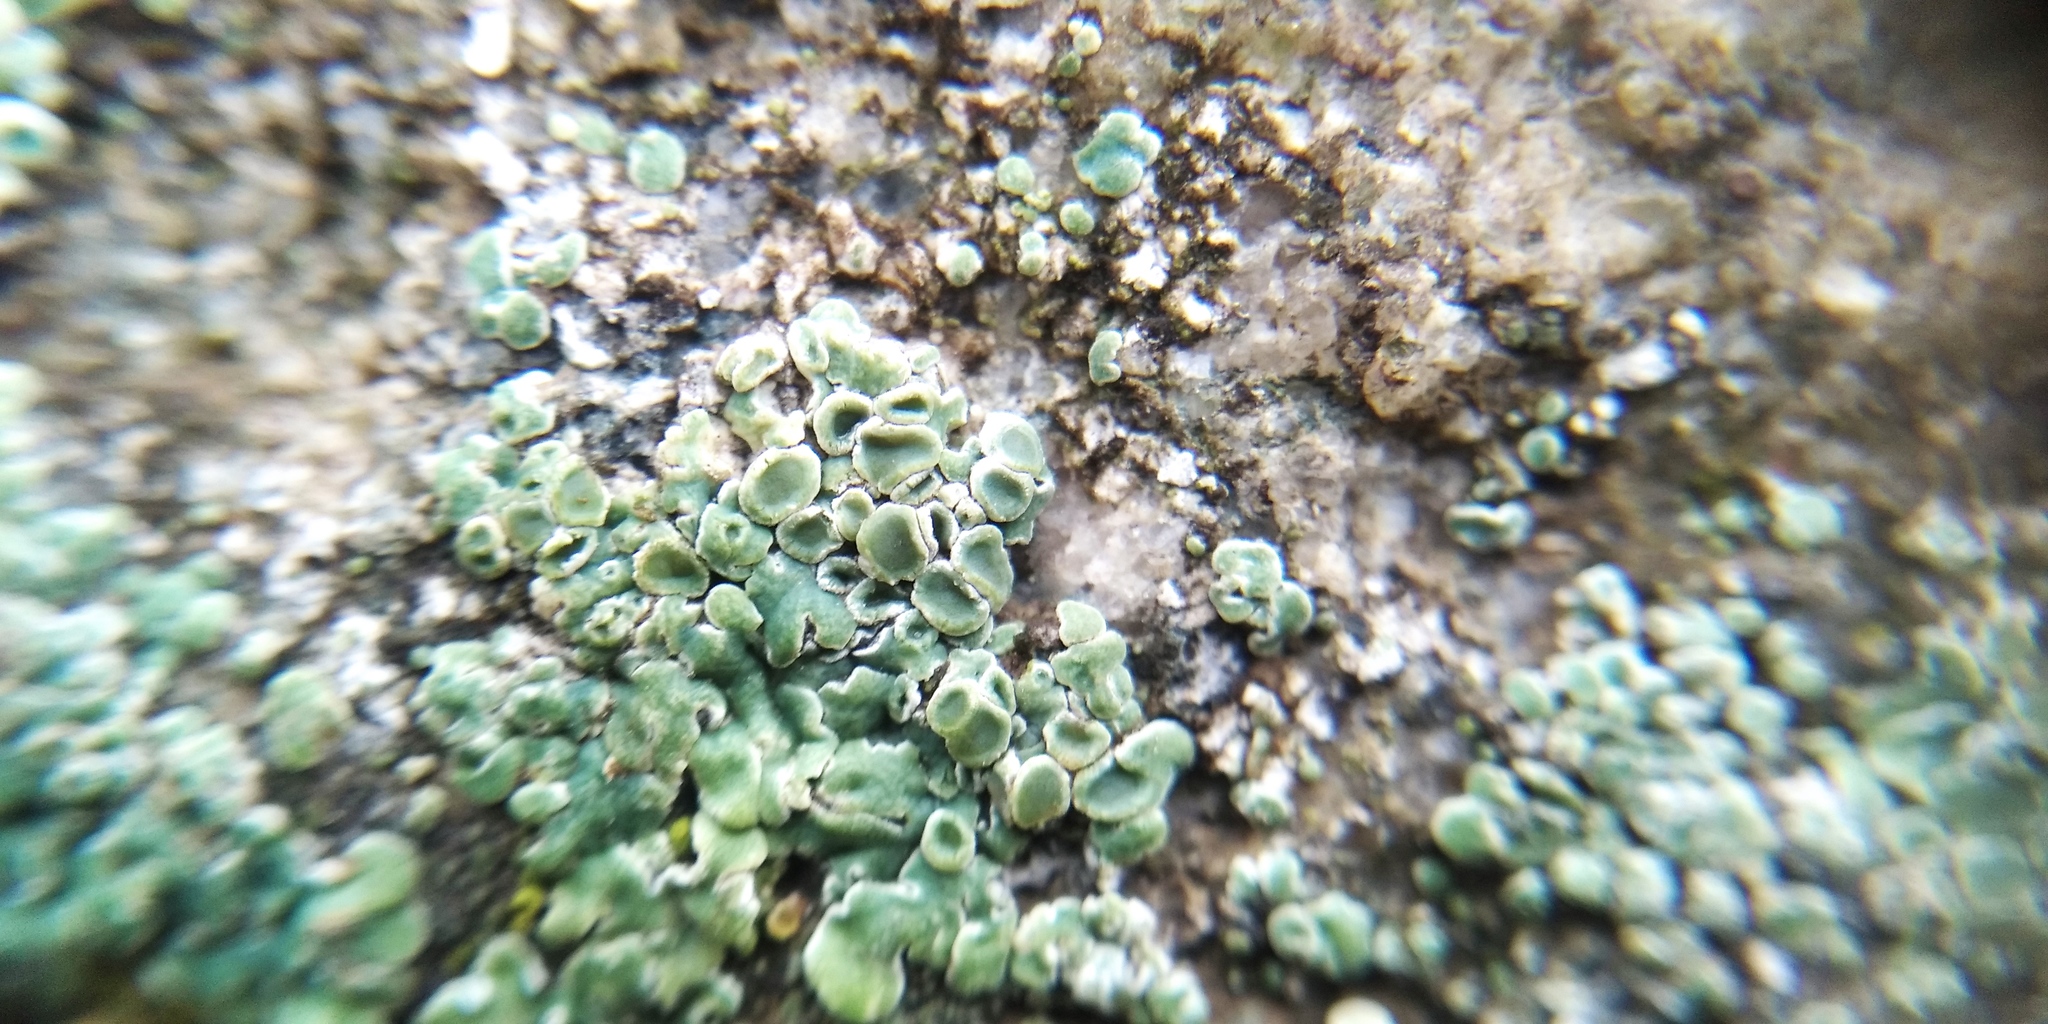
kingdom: Fungi
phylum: Ascomycota
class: Lecanoromycetes
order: Lecanorales
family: Lecanoraceae
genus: Protoparmeliopsis
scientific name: Protoparmeliopsis muralis
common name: Stonewall rim lichen
